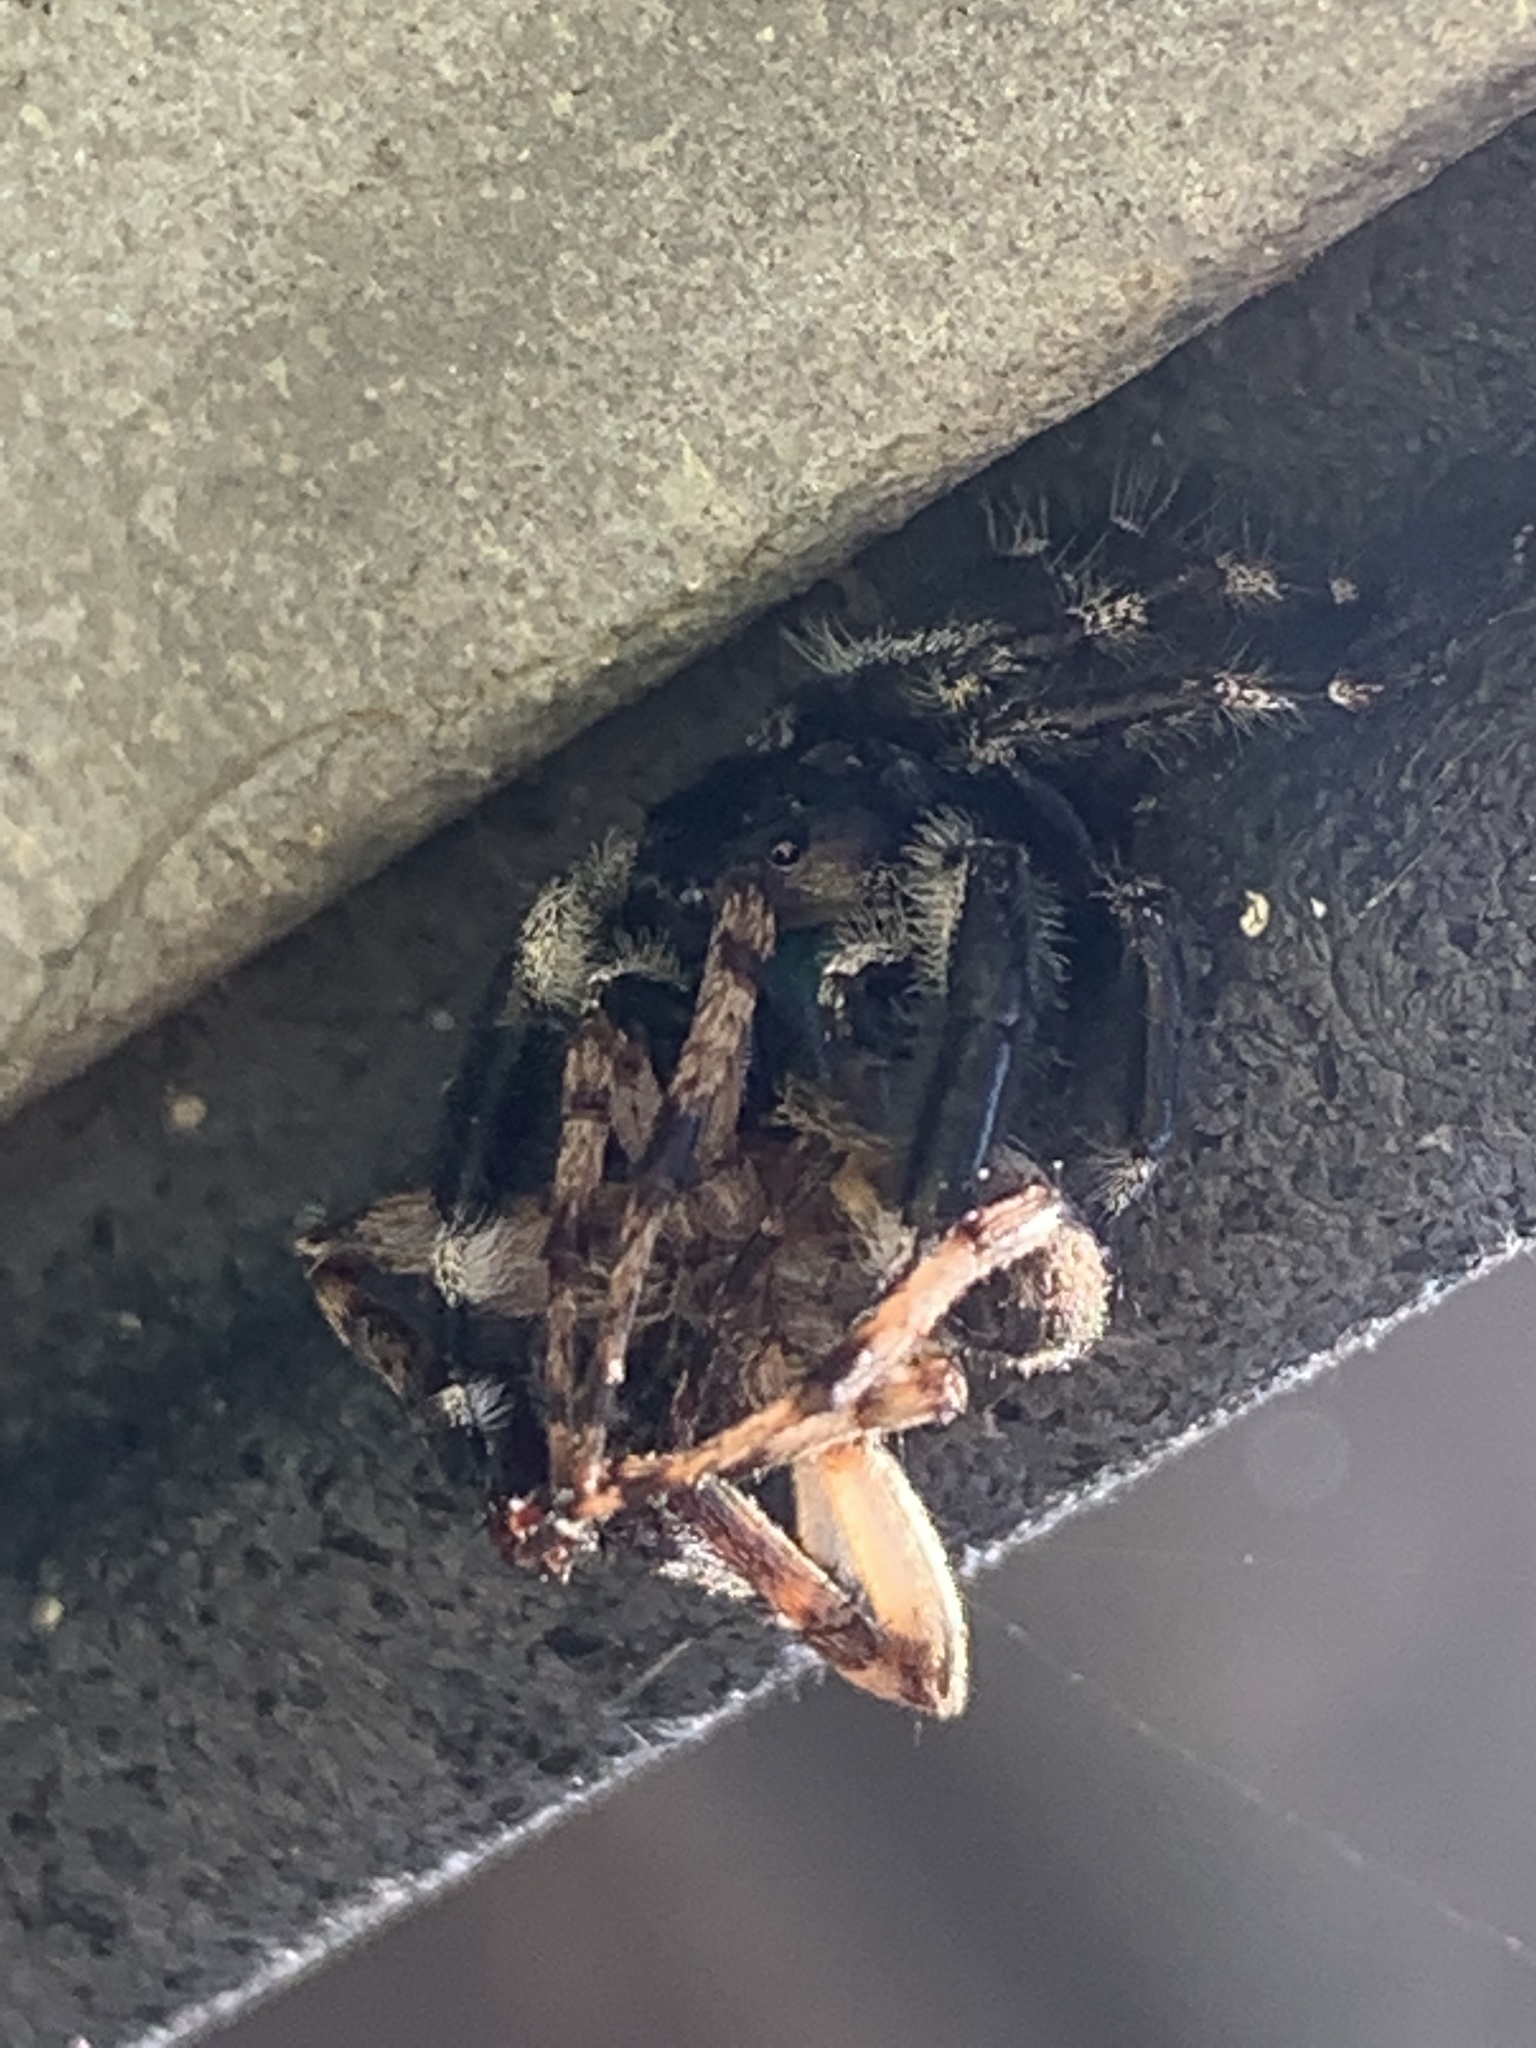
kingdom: Animalia
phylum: Arthropoda
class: Arachnida
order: Araneae
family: Salticidae
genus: Phidippus
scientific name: Phidippus audax
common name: Bold jumper
